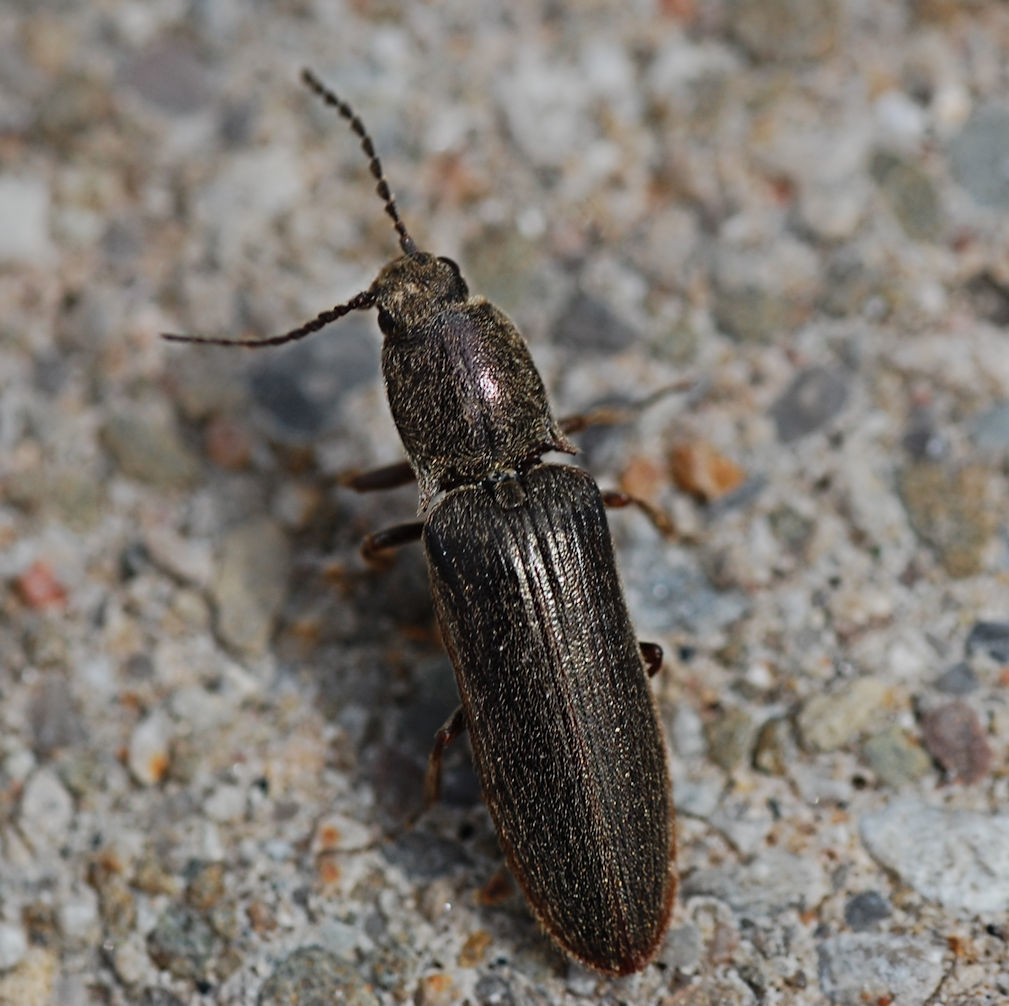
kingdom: Animalia
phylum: Arthropoda
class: Insecta
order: Coleoptera
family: Elateridae
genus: Sylvanelater
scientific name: Sylvanelater cylindriformis
